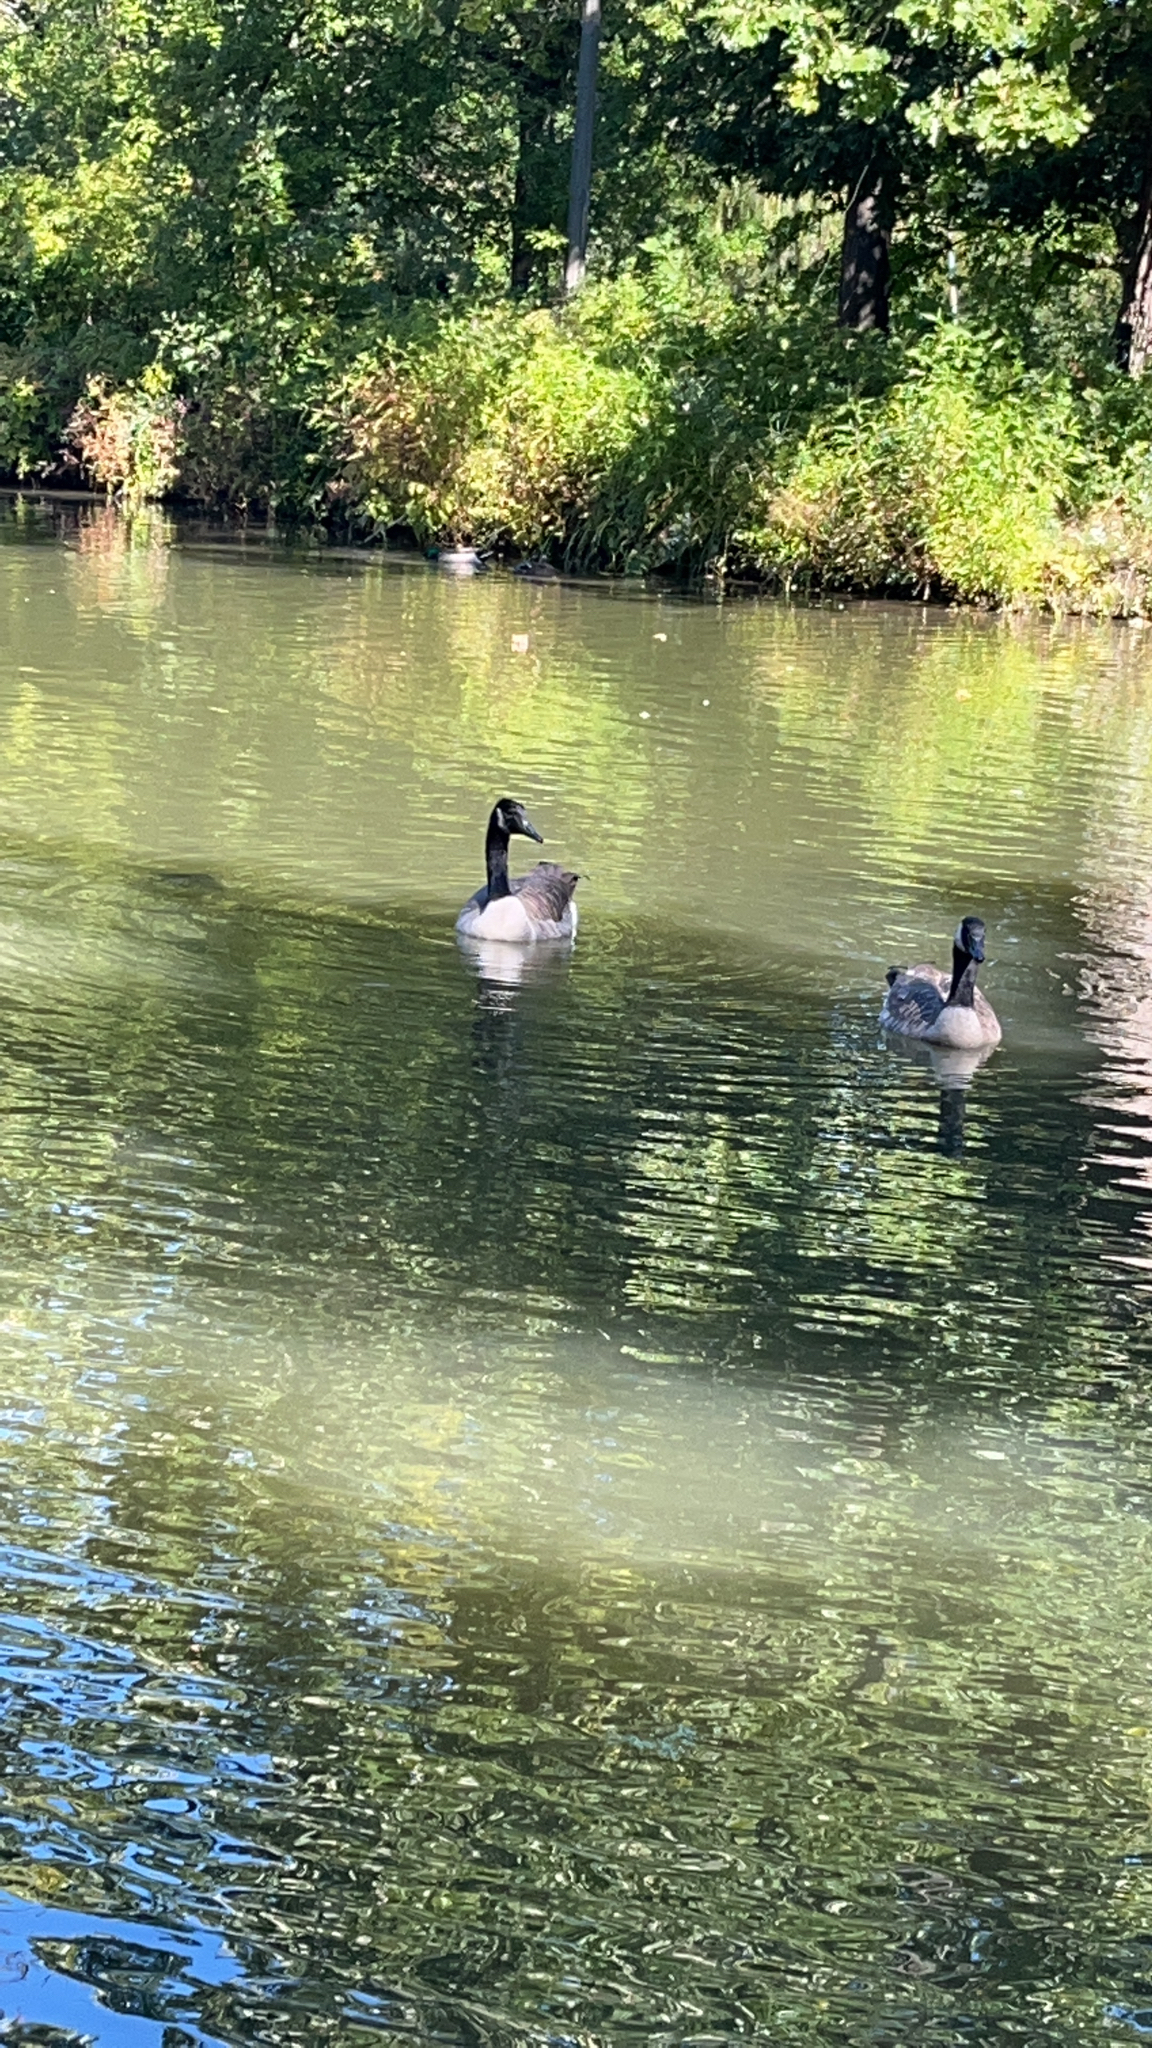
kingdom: Animalia
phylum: Chordata
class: Aves
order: Anseriformes
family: Anatidae
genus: Branta
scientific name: Branta canadensis
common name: Canada goose
